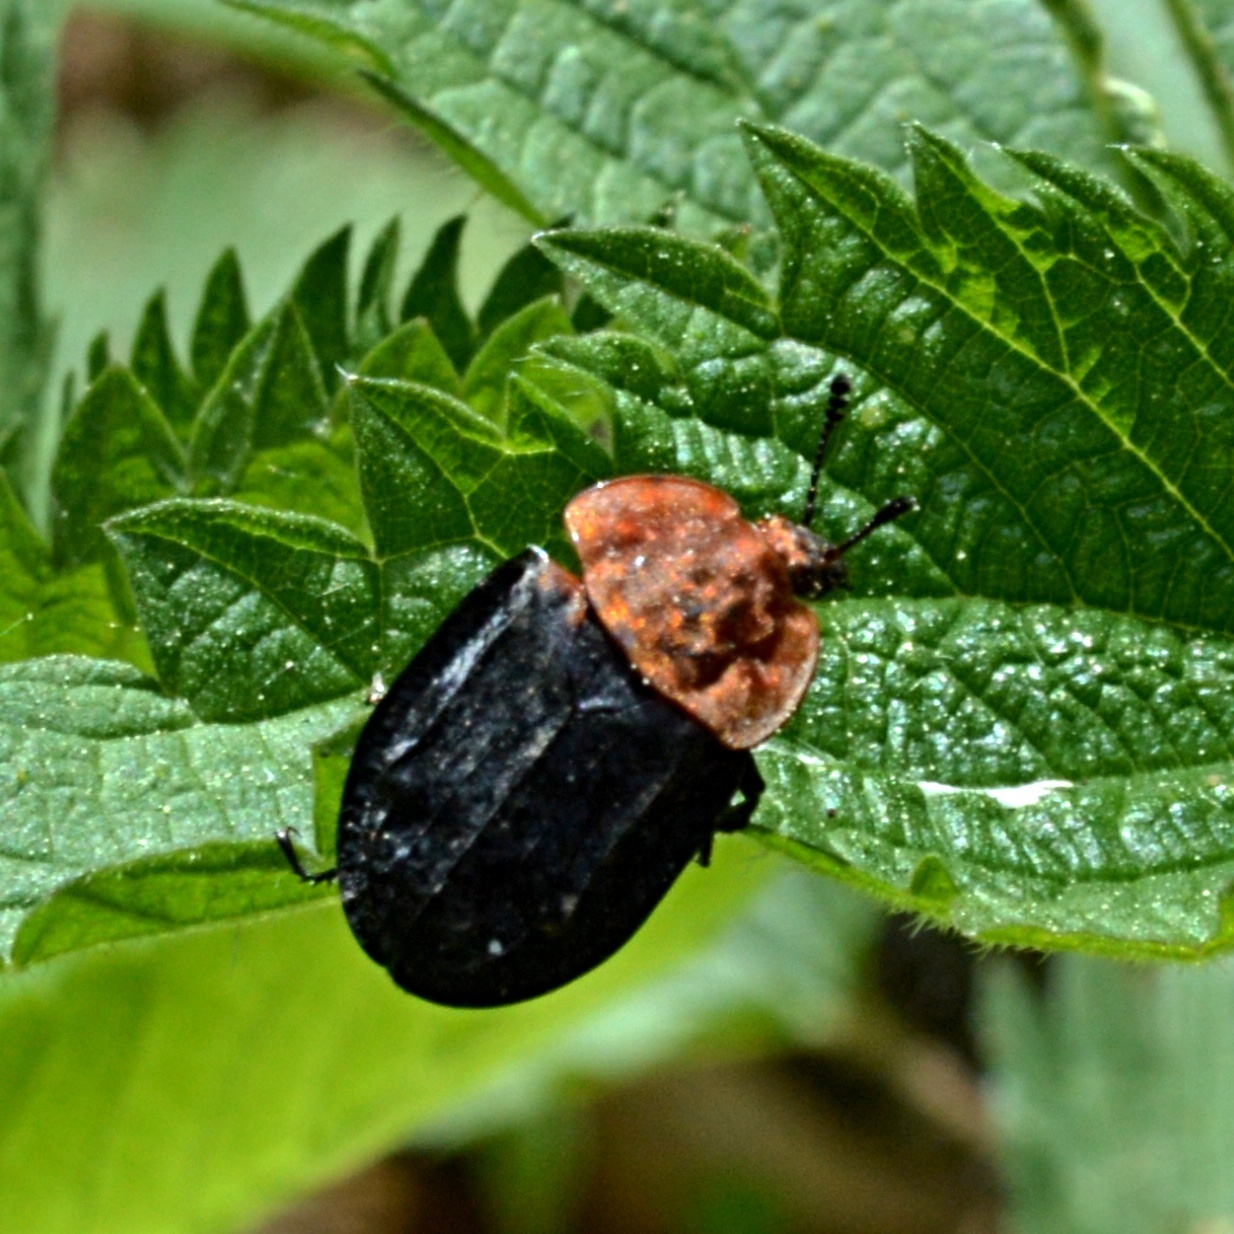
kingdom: Animalia
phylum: Arthropoda
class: Insecta
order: Coleoptera
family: Staphylinidae
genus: Oiceoptoma
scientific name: Oiceoptoma thoracicum
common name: Red-breasted carrion beetle
